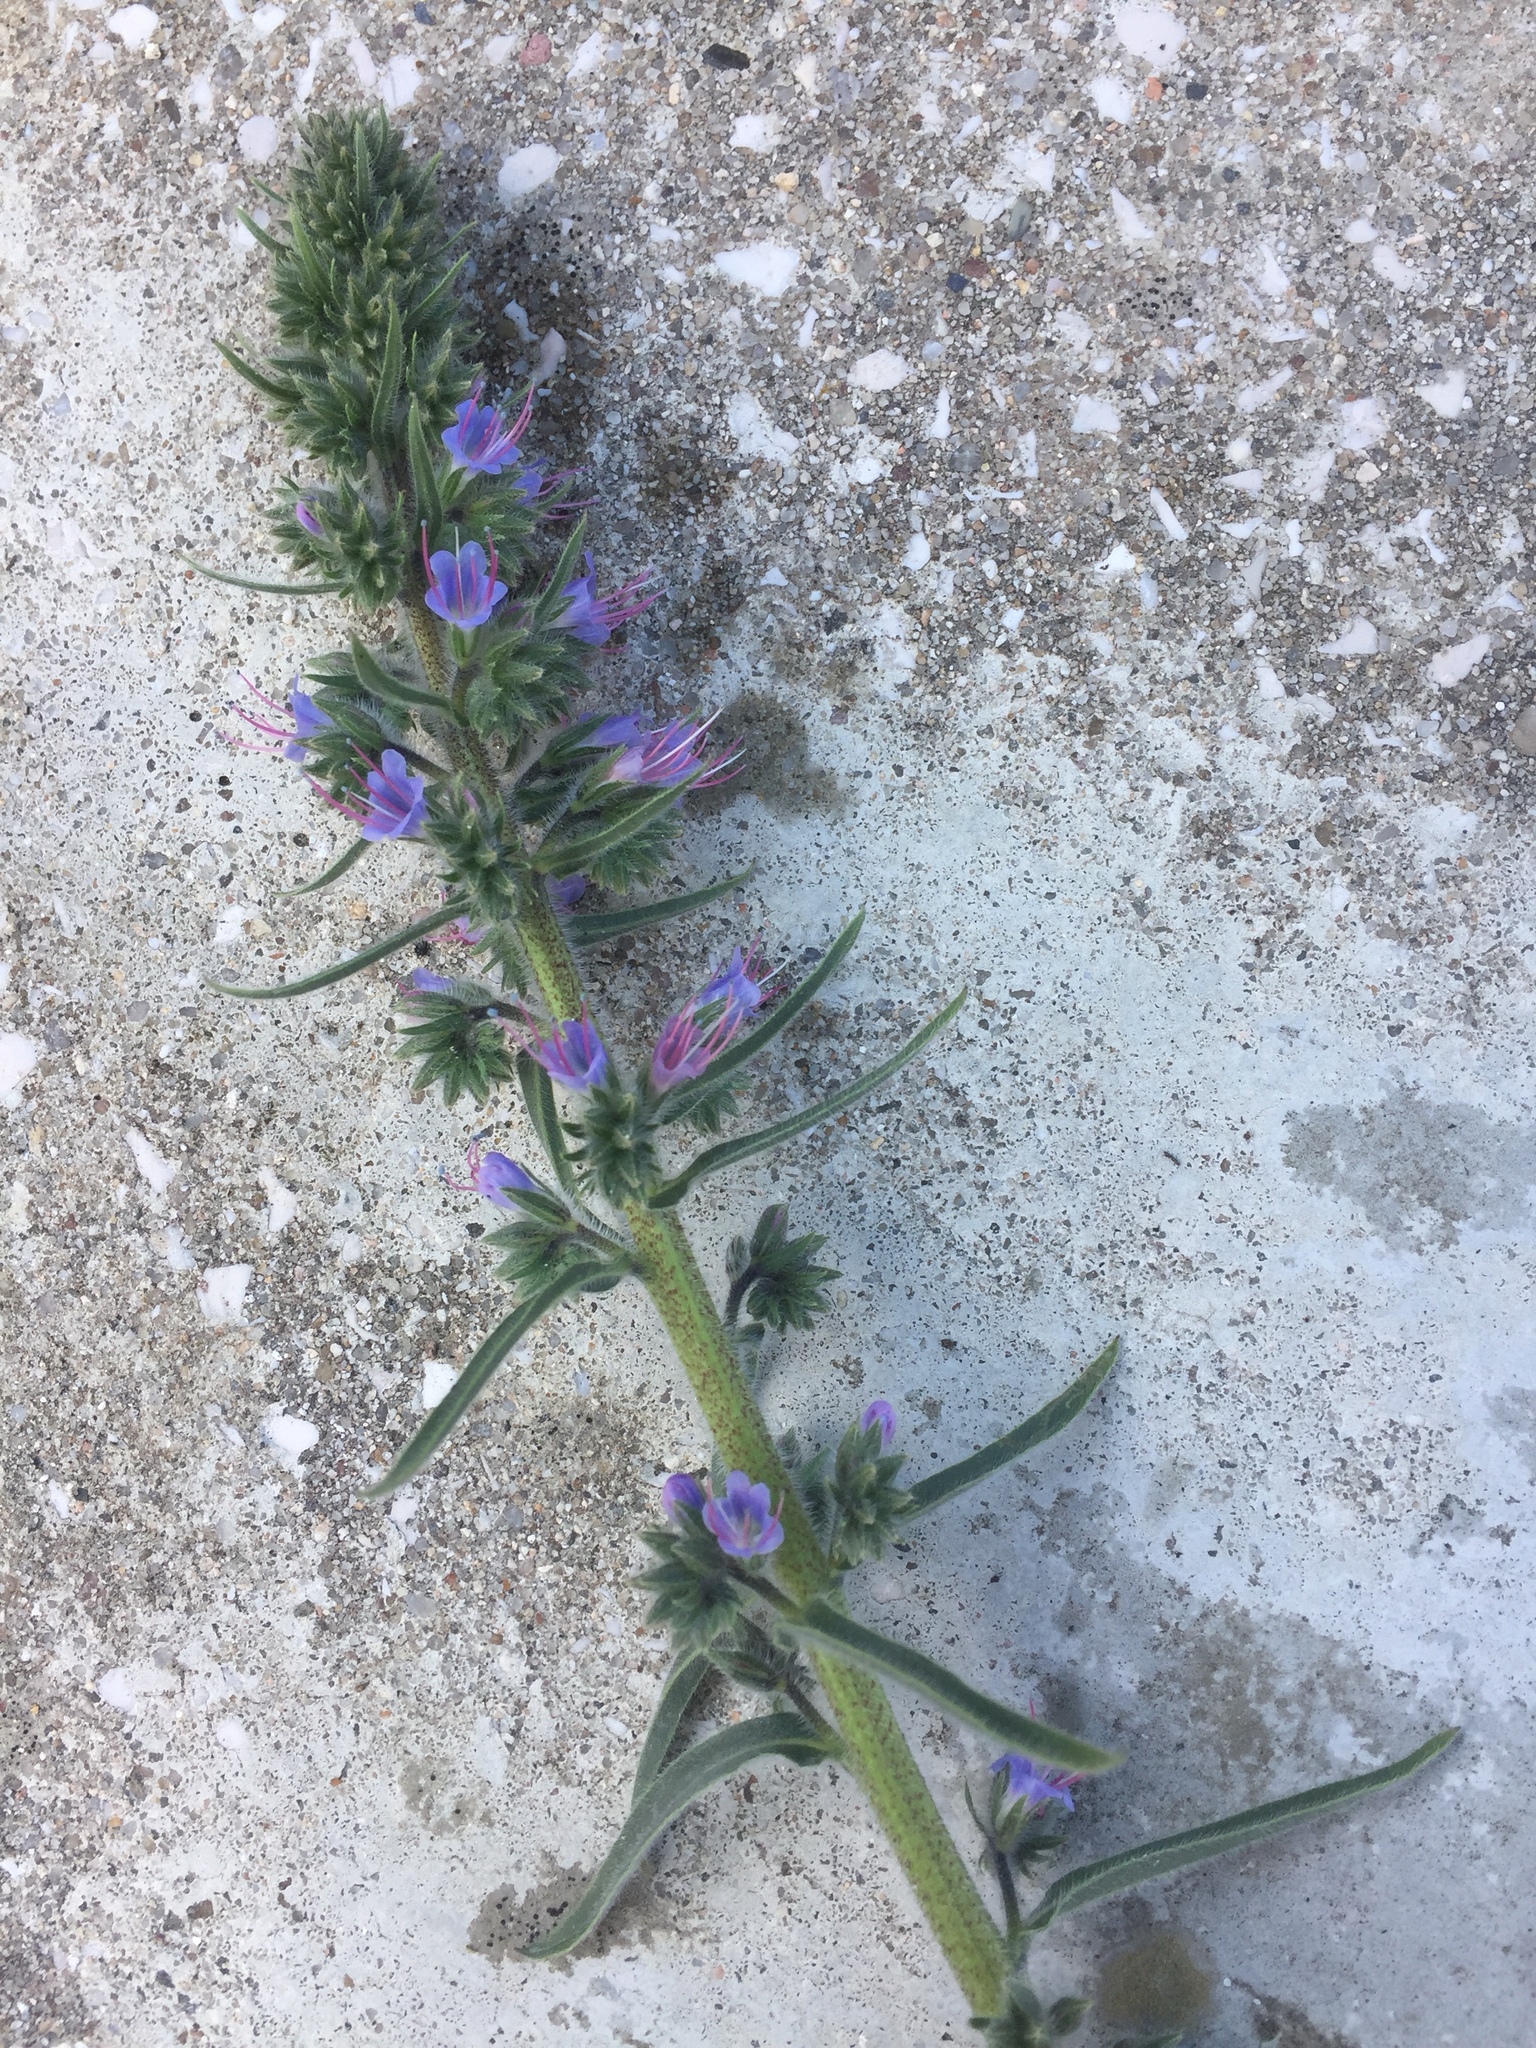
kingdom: Plantae
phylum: Tracheophyta
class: Magnoliopsida
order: Boraginales
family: Boraginaceae
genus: Echium
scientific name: Echium lusitanicum
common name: Violet-vein viper's bugloss
